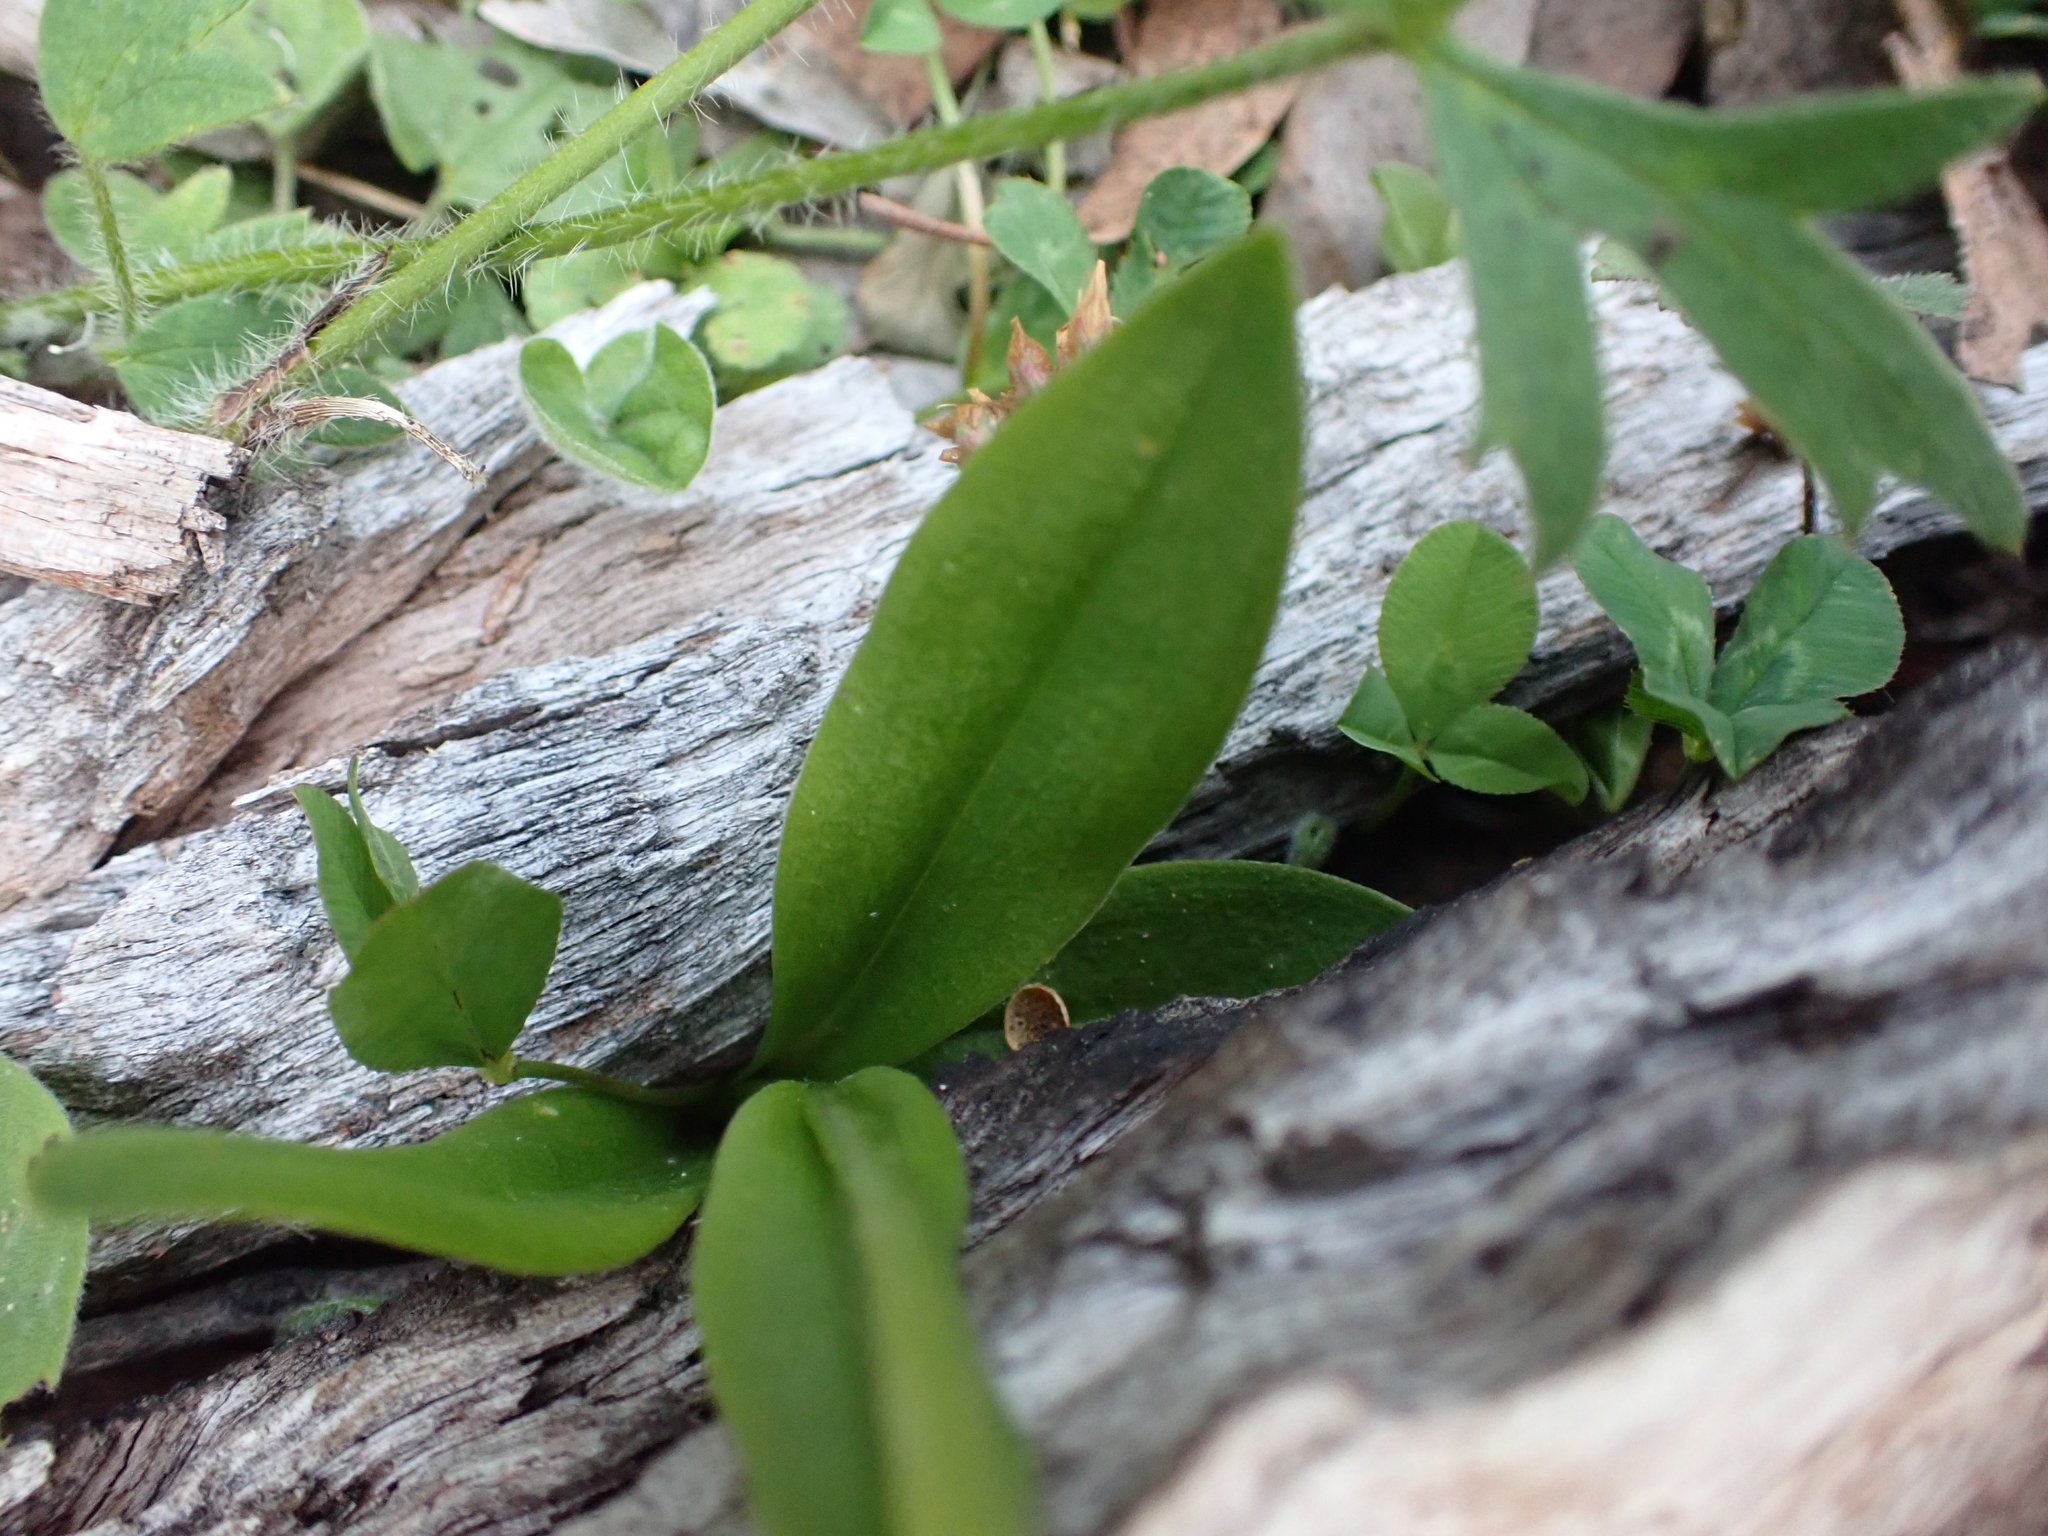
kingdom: Plantae
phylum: Tracheophyta
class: Liliopsida
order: Asparagales
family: Orchidaceae
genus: Pterostylis
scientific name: Pterostylis monticola
